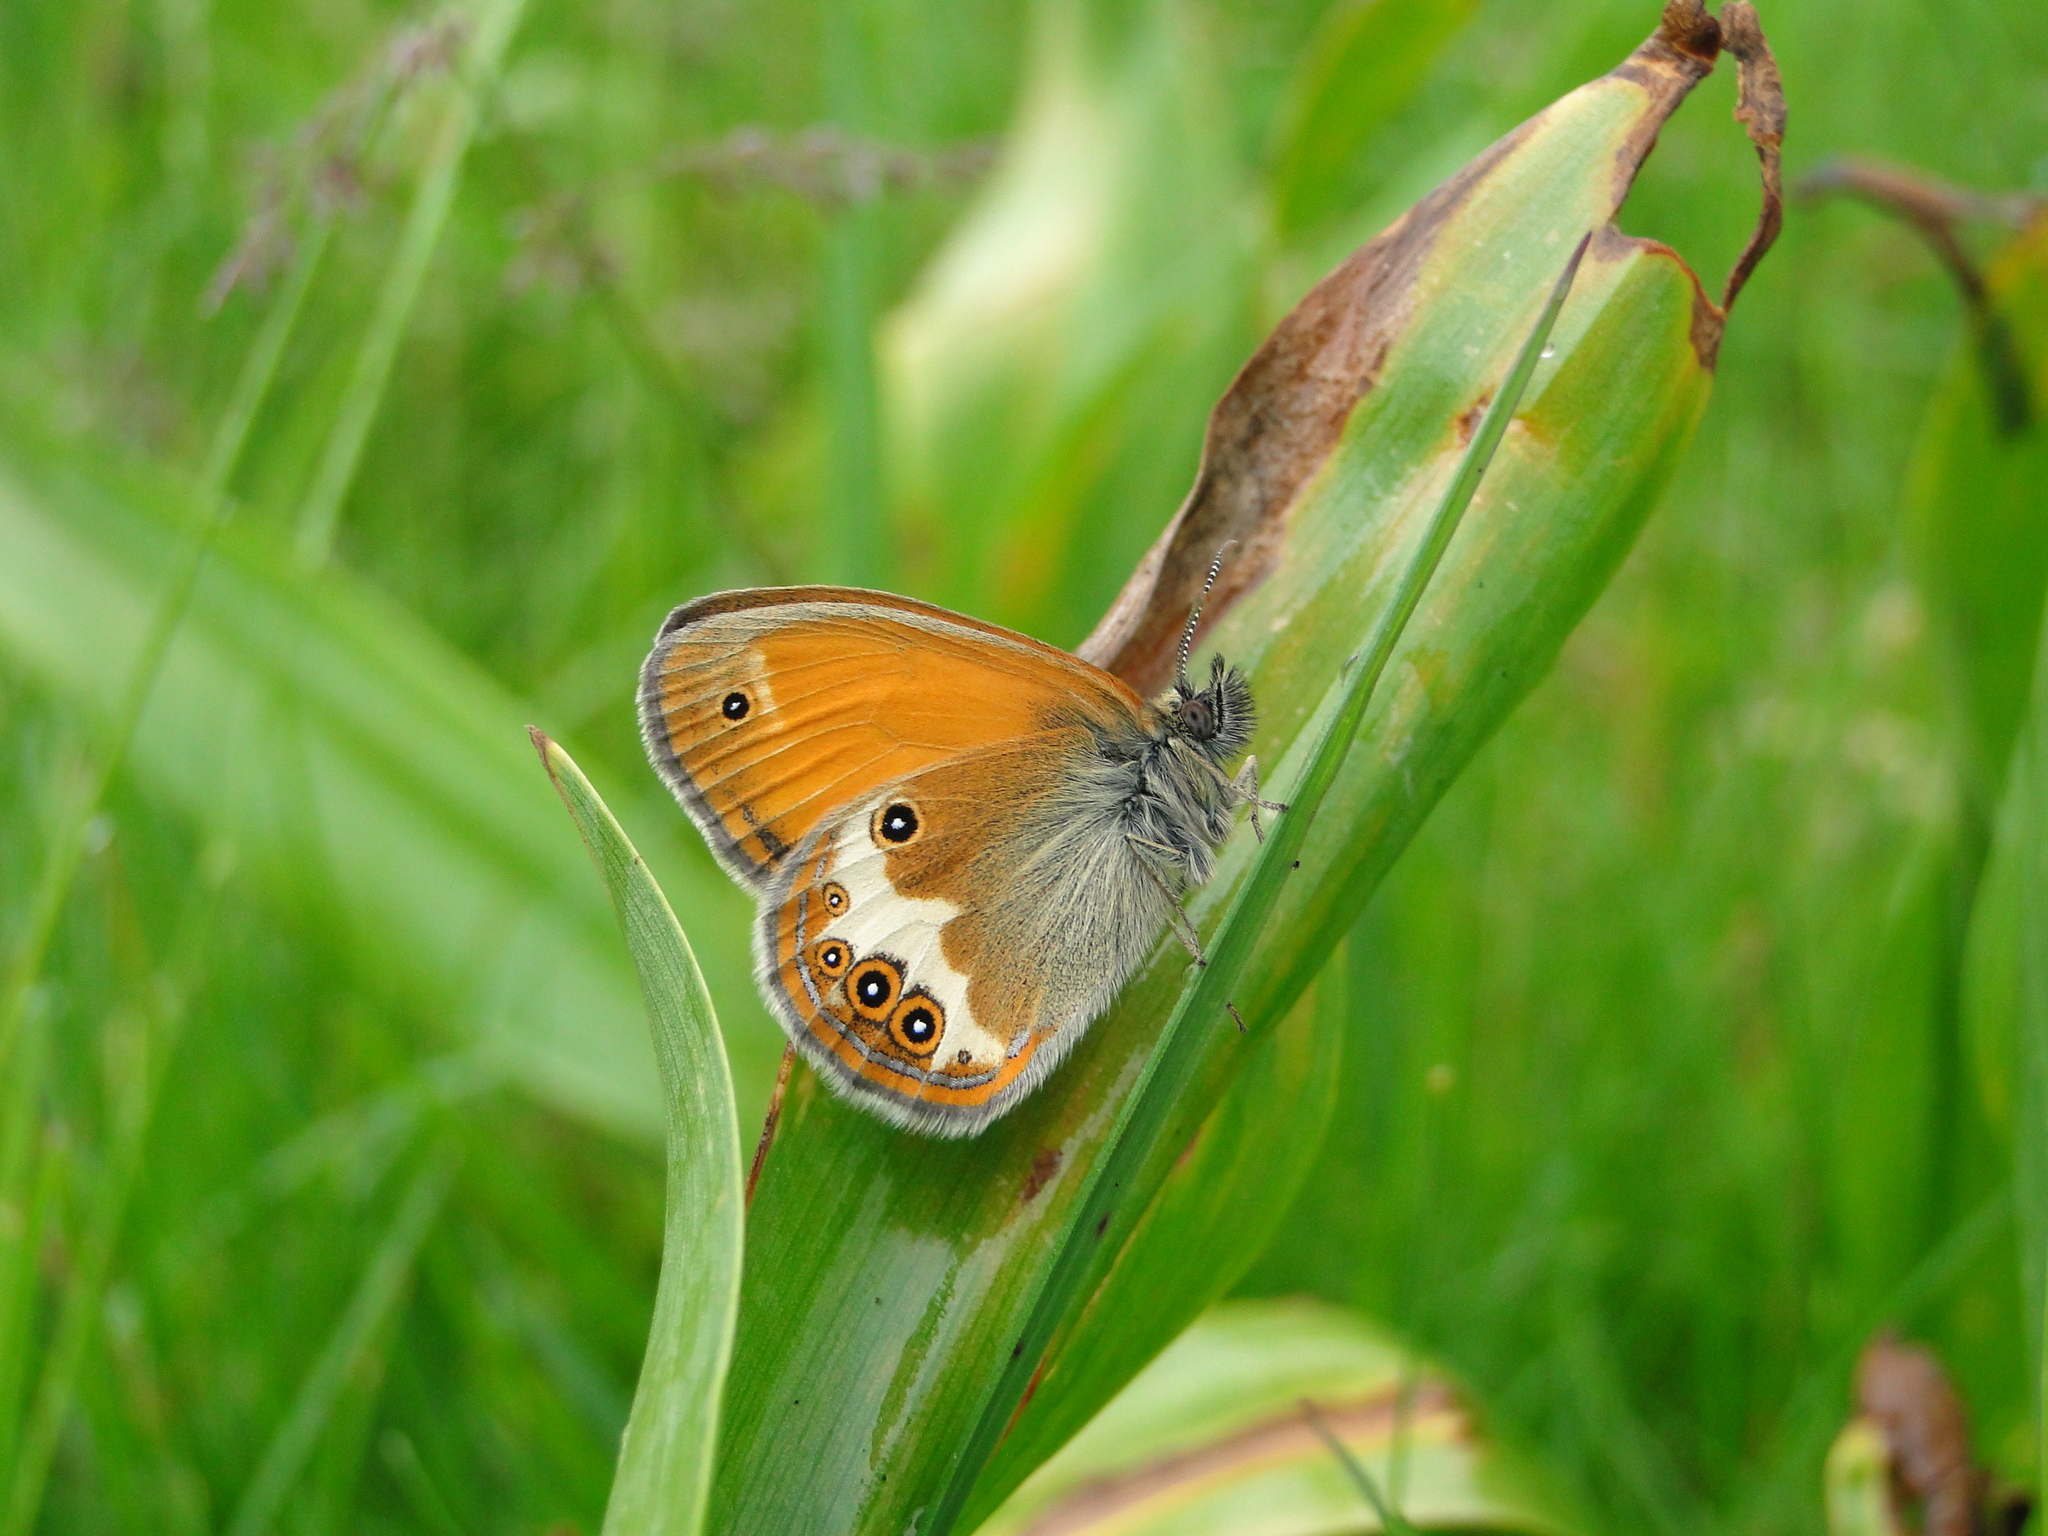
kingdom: Animalia
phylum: Arthropoda
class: Insecta
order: Lepidoptera
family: Nymphalidae
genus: Coenonympha
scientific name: Coenonympha arcania
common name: Pearly heath
